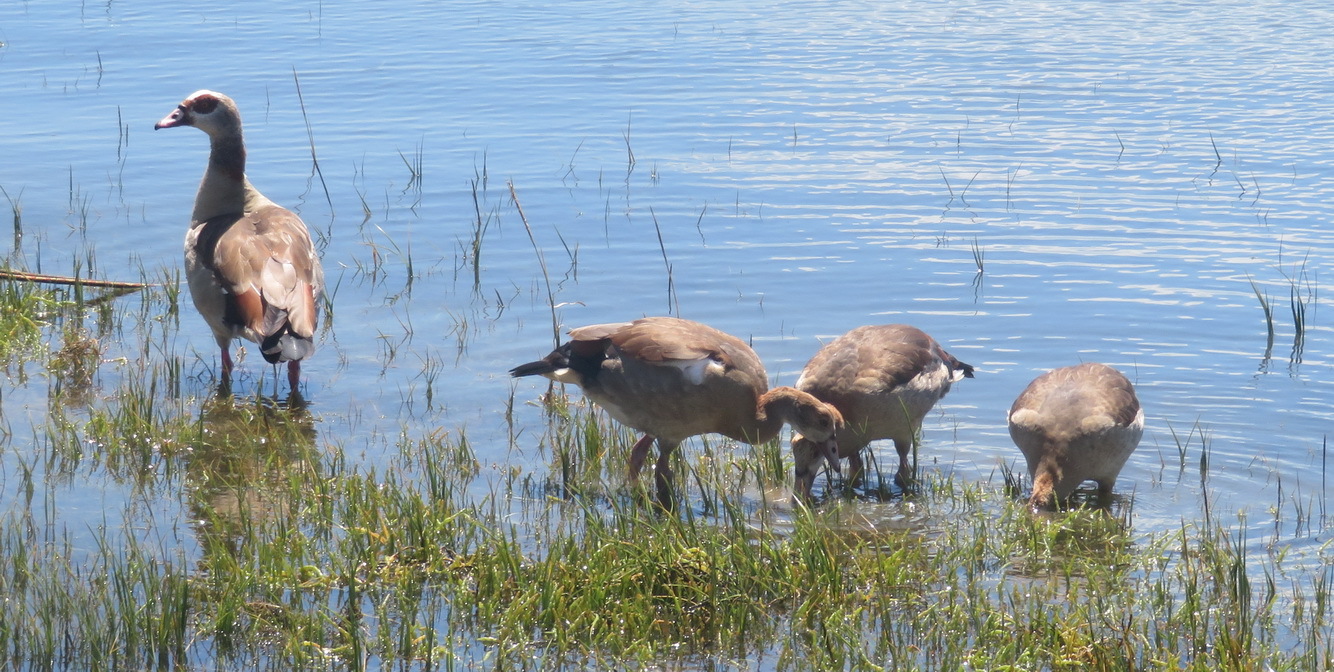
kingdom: Animalia
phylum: Chordata
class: Aves
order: Anseriformes
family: Anatidae
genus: Alopochen
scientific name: Alopochen aegyptiaca
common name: Egyptian goose
